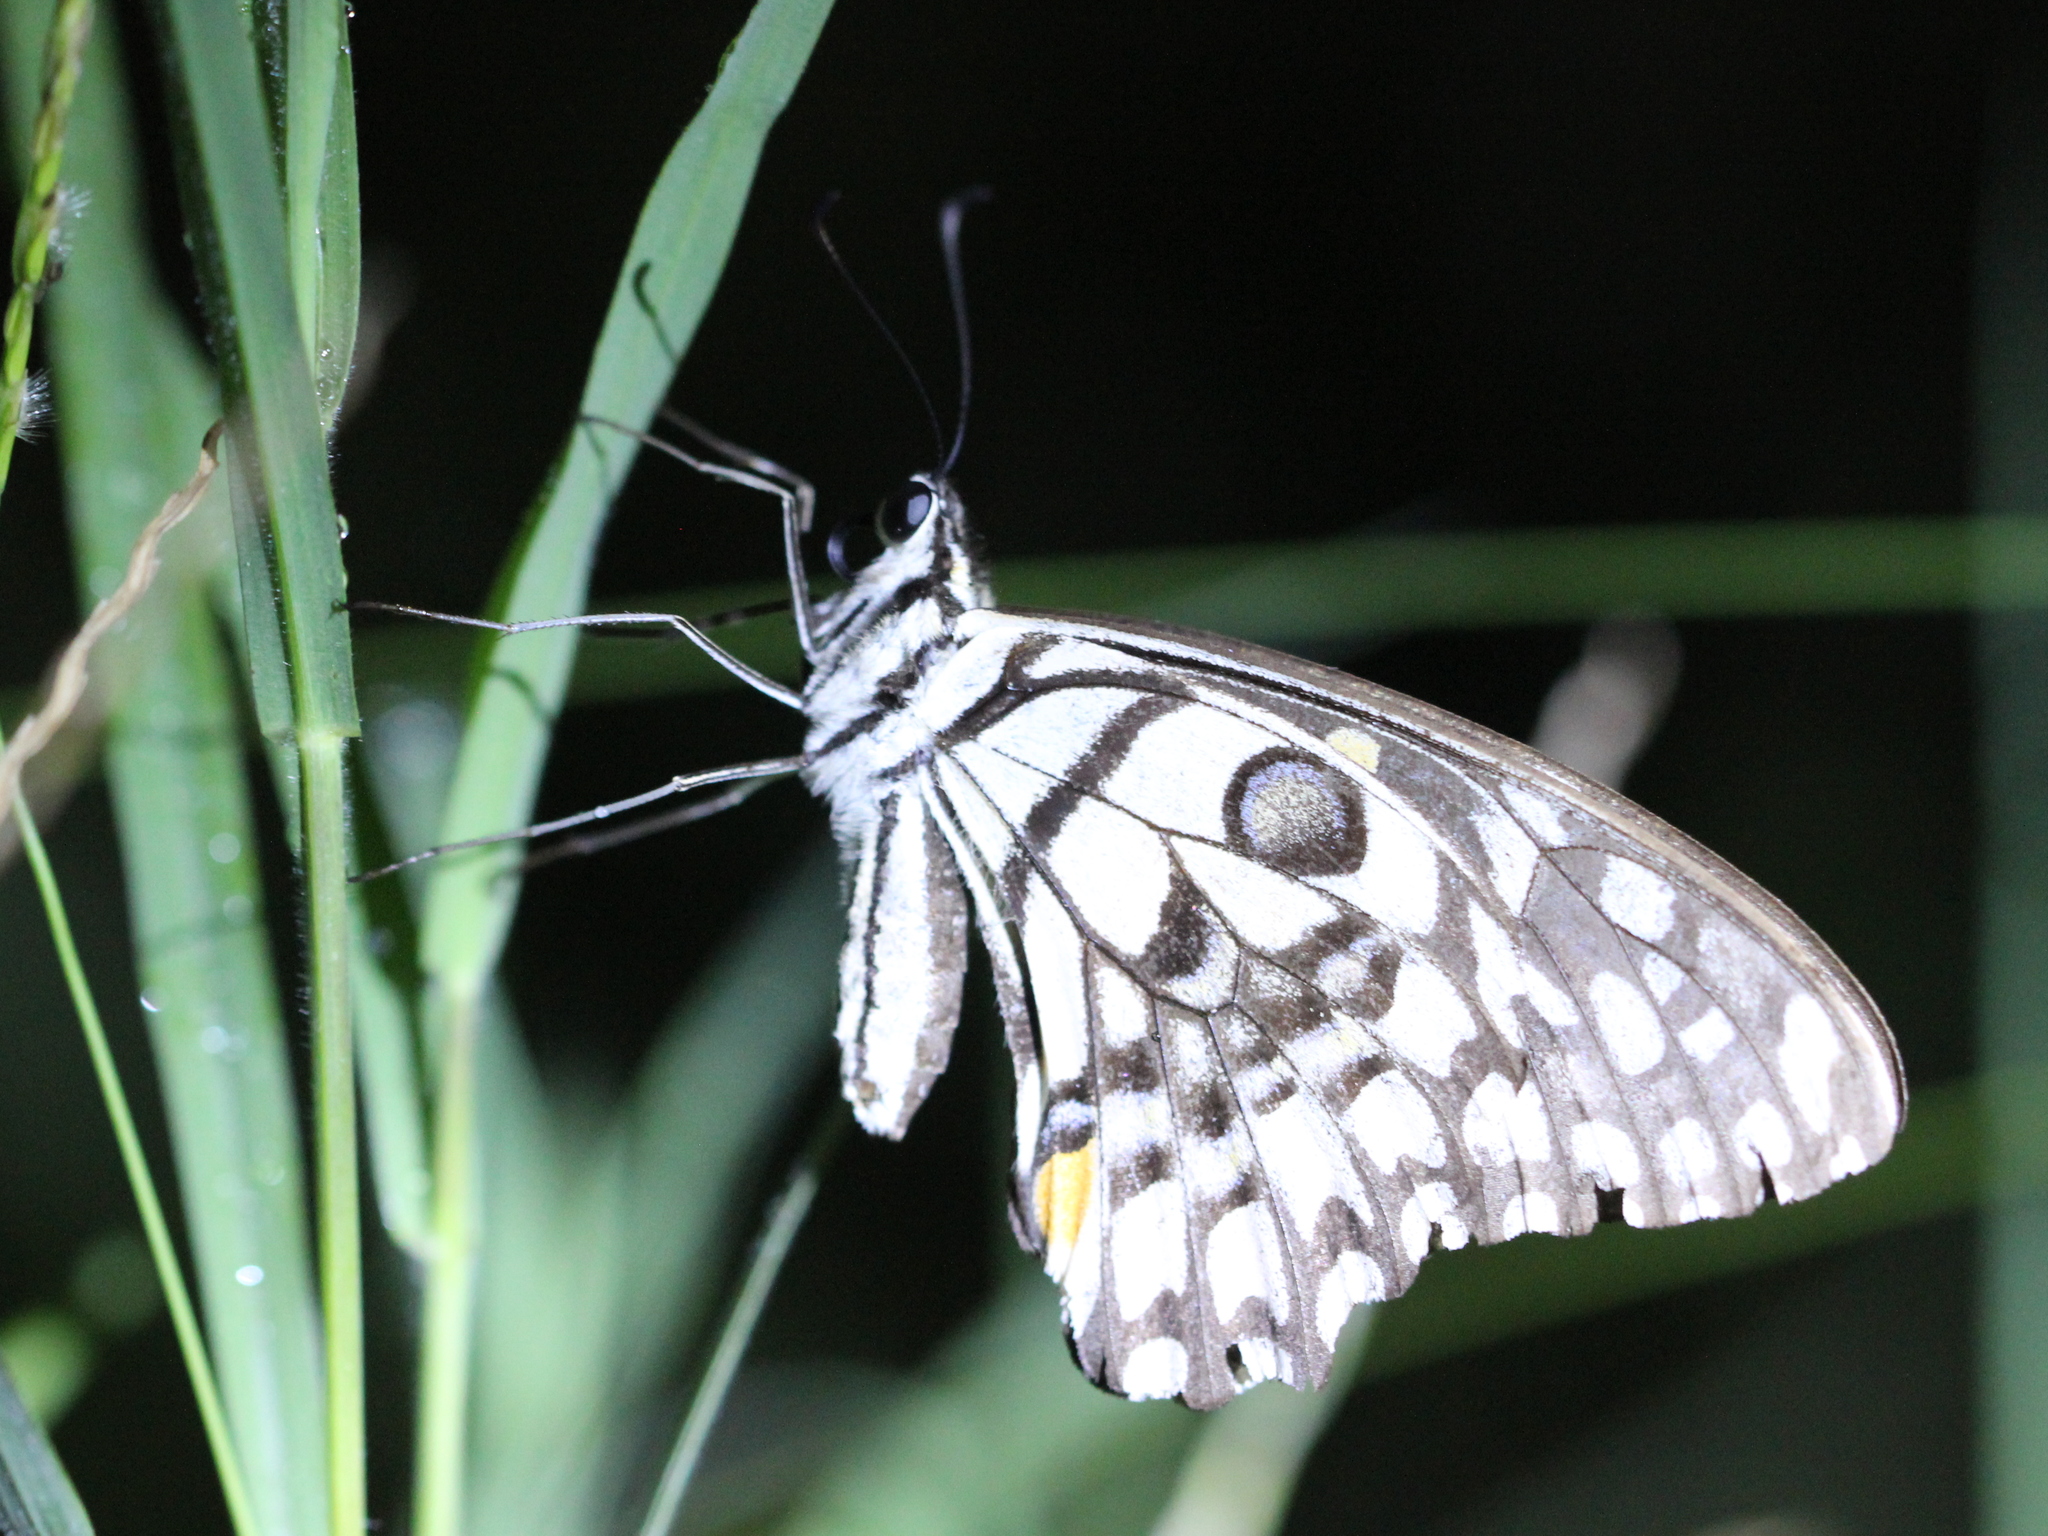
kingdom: Animalia
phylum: Arthropoda
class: Insecta
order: Lepidoptera
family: Papilionidae
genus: Papilio
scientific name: Papilio demoleus
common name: Lime butterfly
